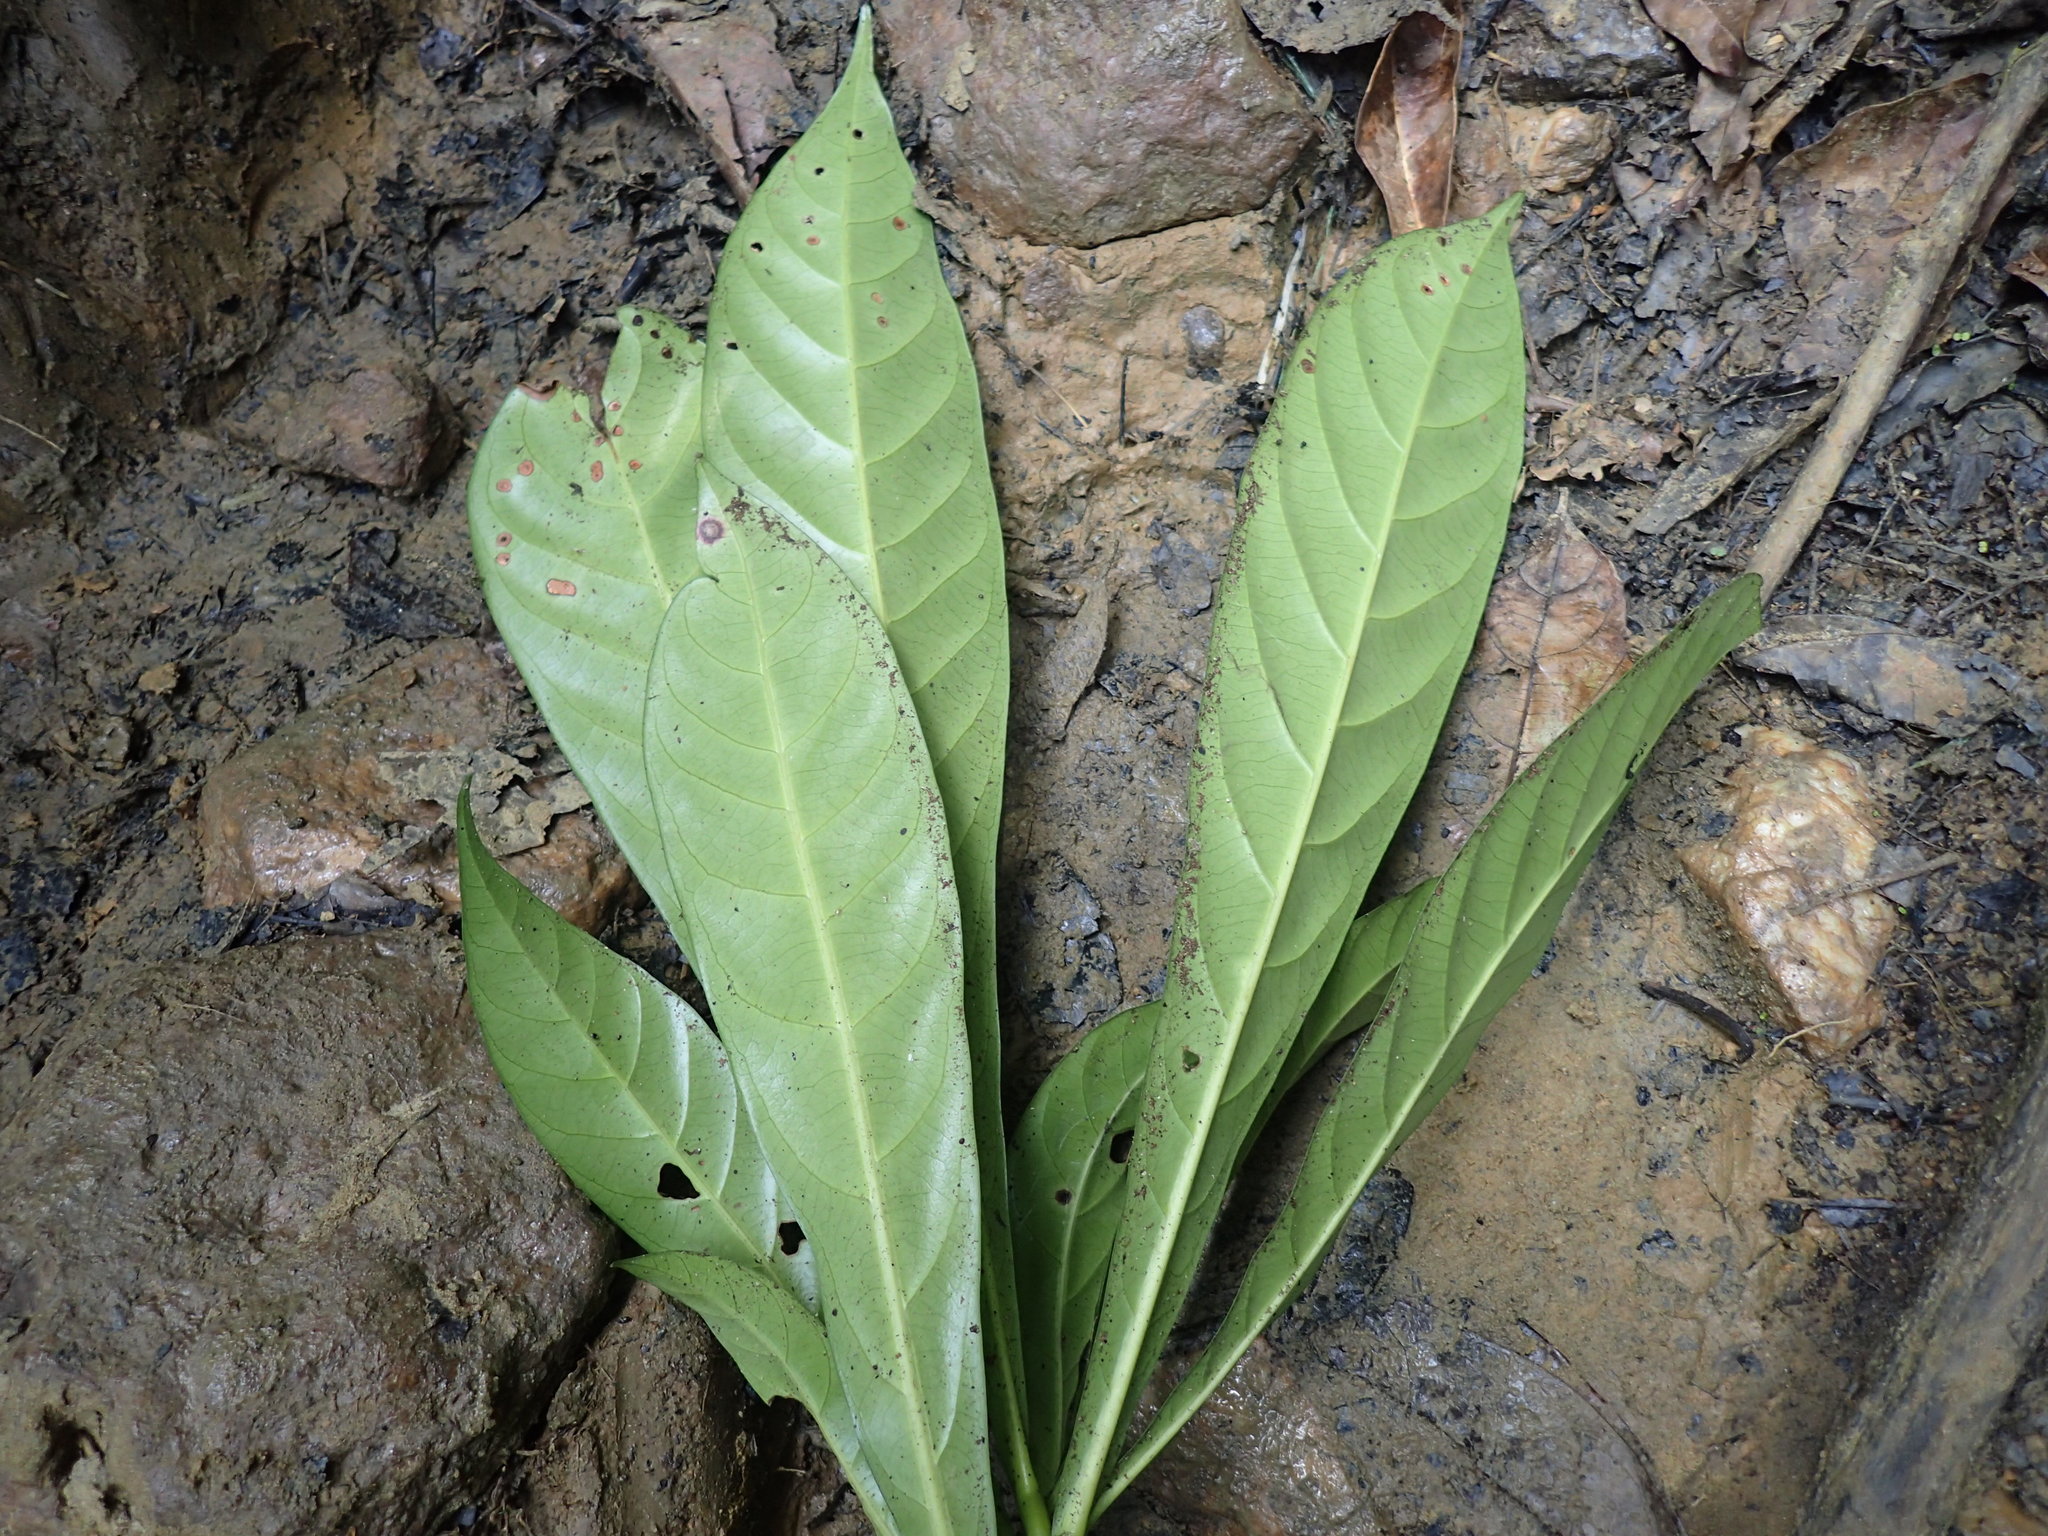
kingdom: Plantae
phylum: Tracheophyta
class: Magnoliopsida
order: Ericales
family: Sapotaceae
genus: Omphalocarpum
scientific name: Omphalocarpum elatum
